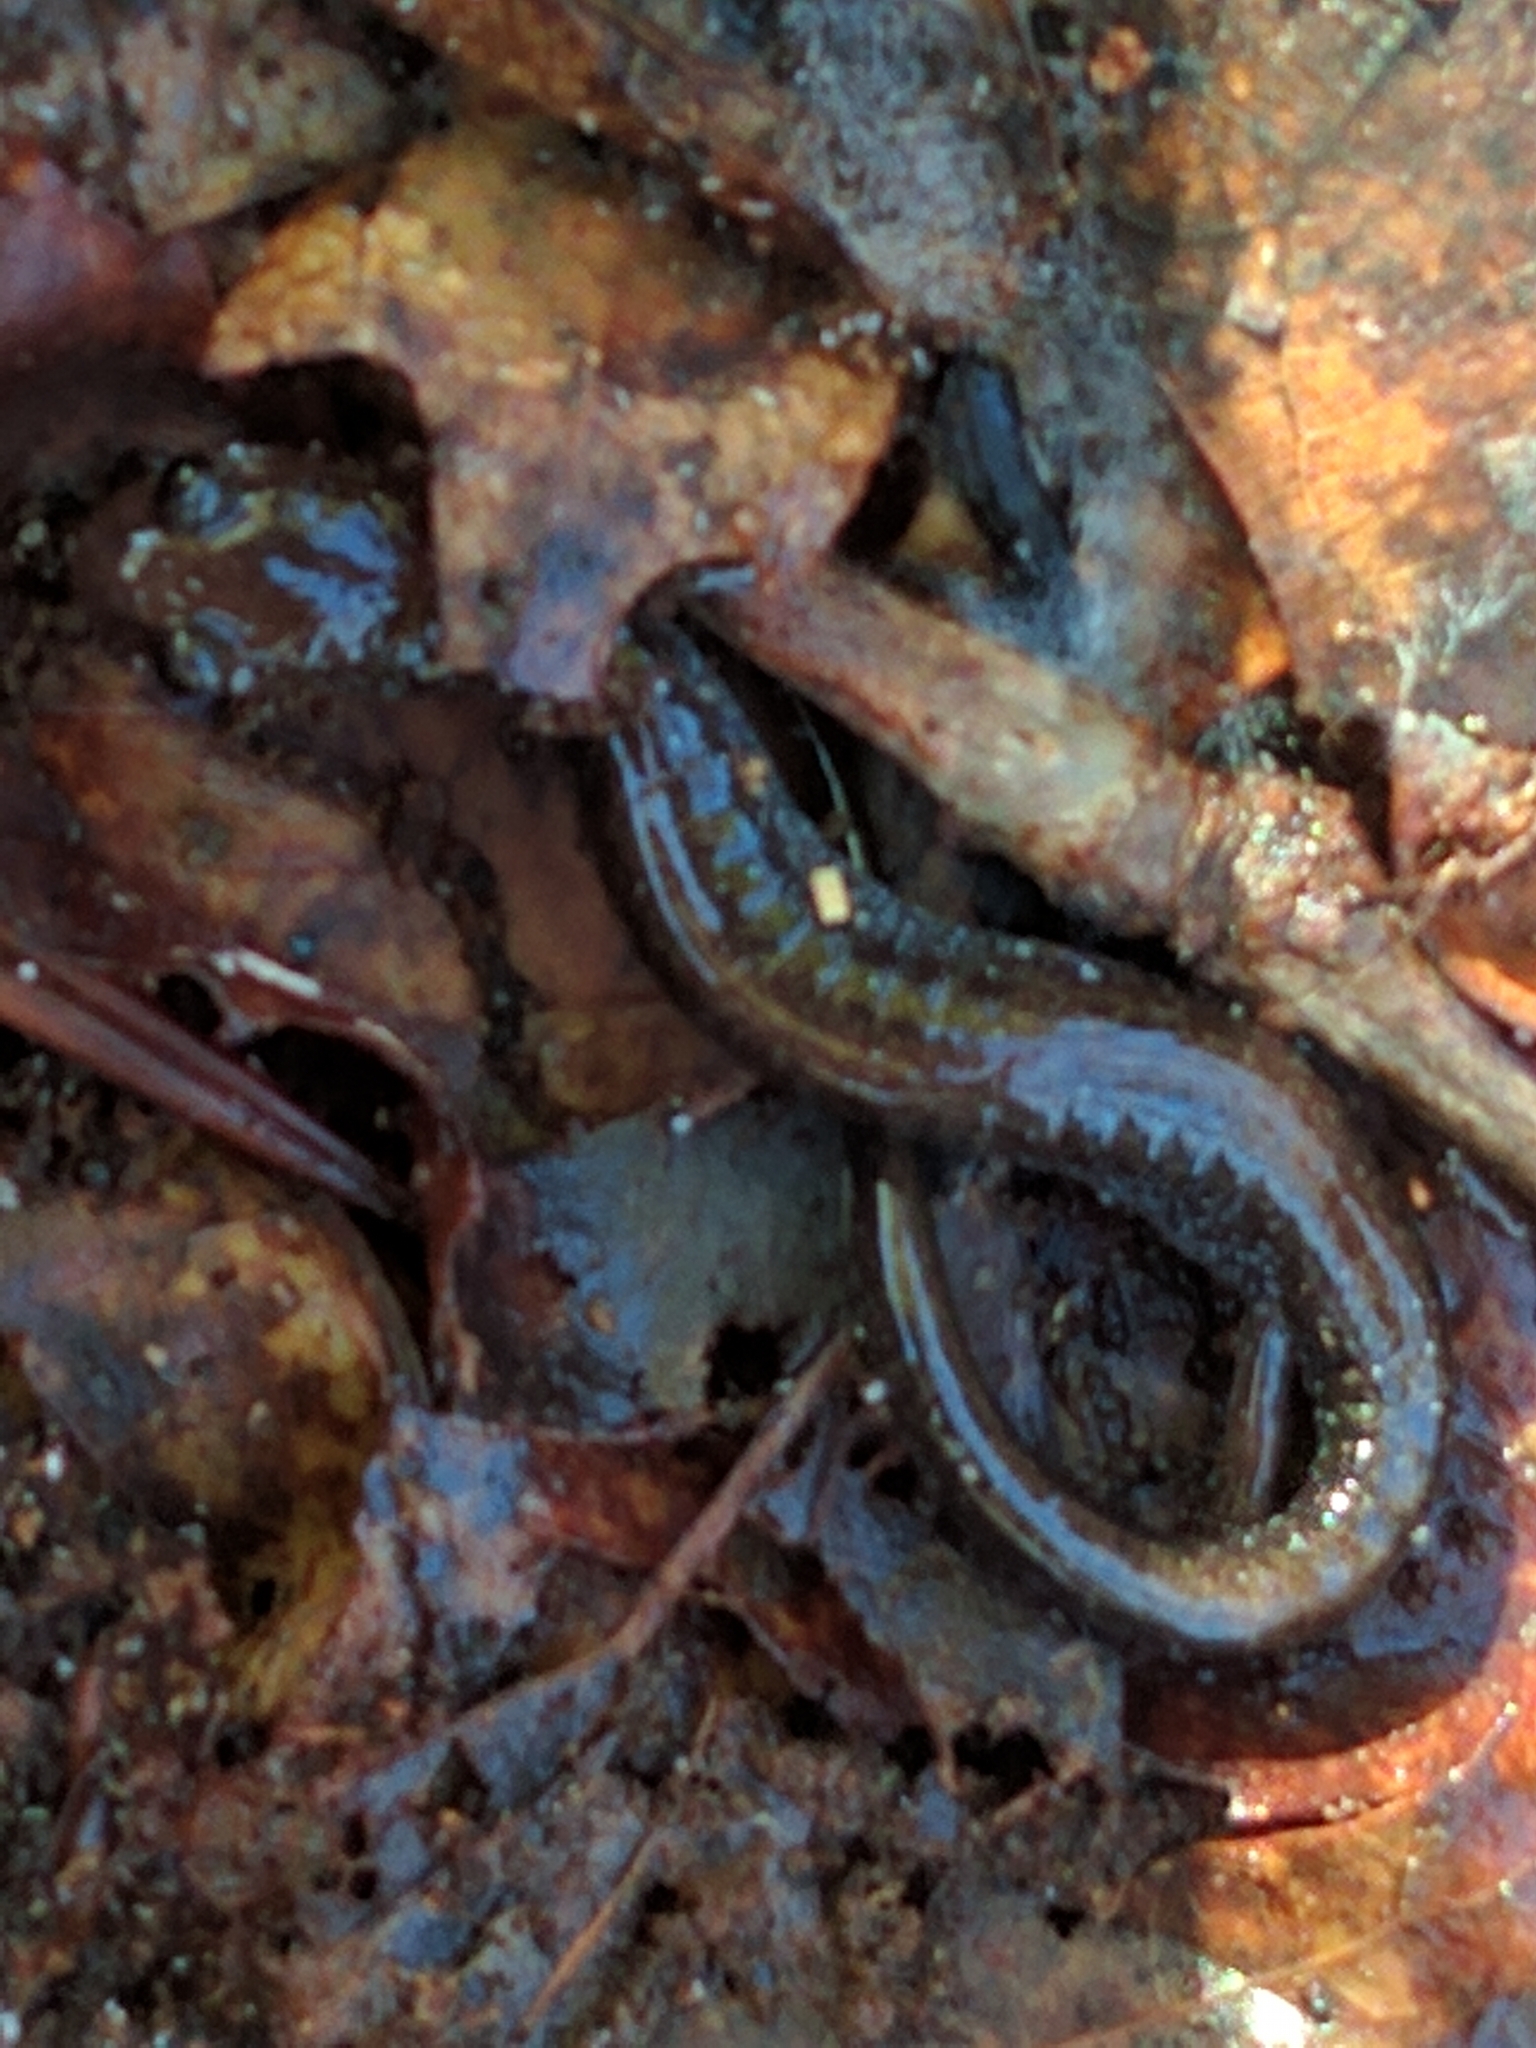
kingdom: Animalia
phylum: Chordata
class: Amphibia
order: Caudata
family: Plethodontidae
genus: Plethodon
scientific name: Plethodon cinereus
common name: Redback salamander
